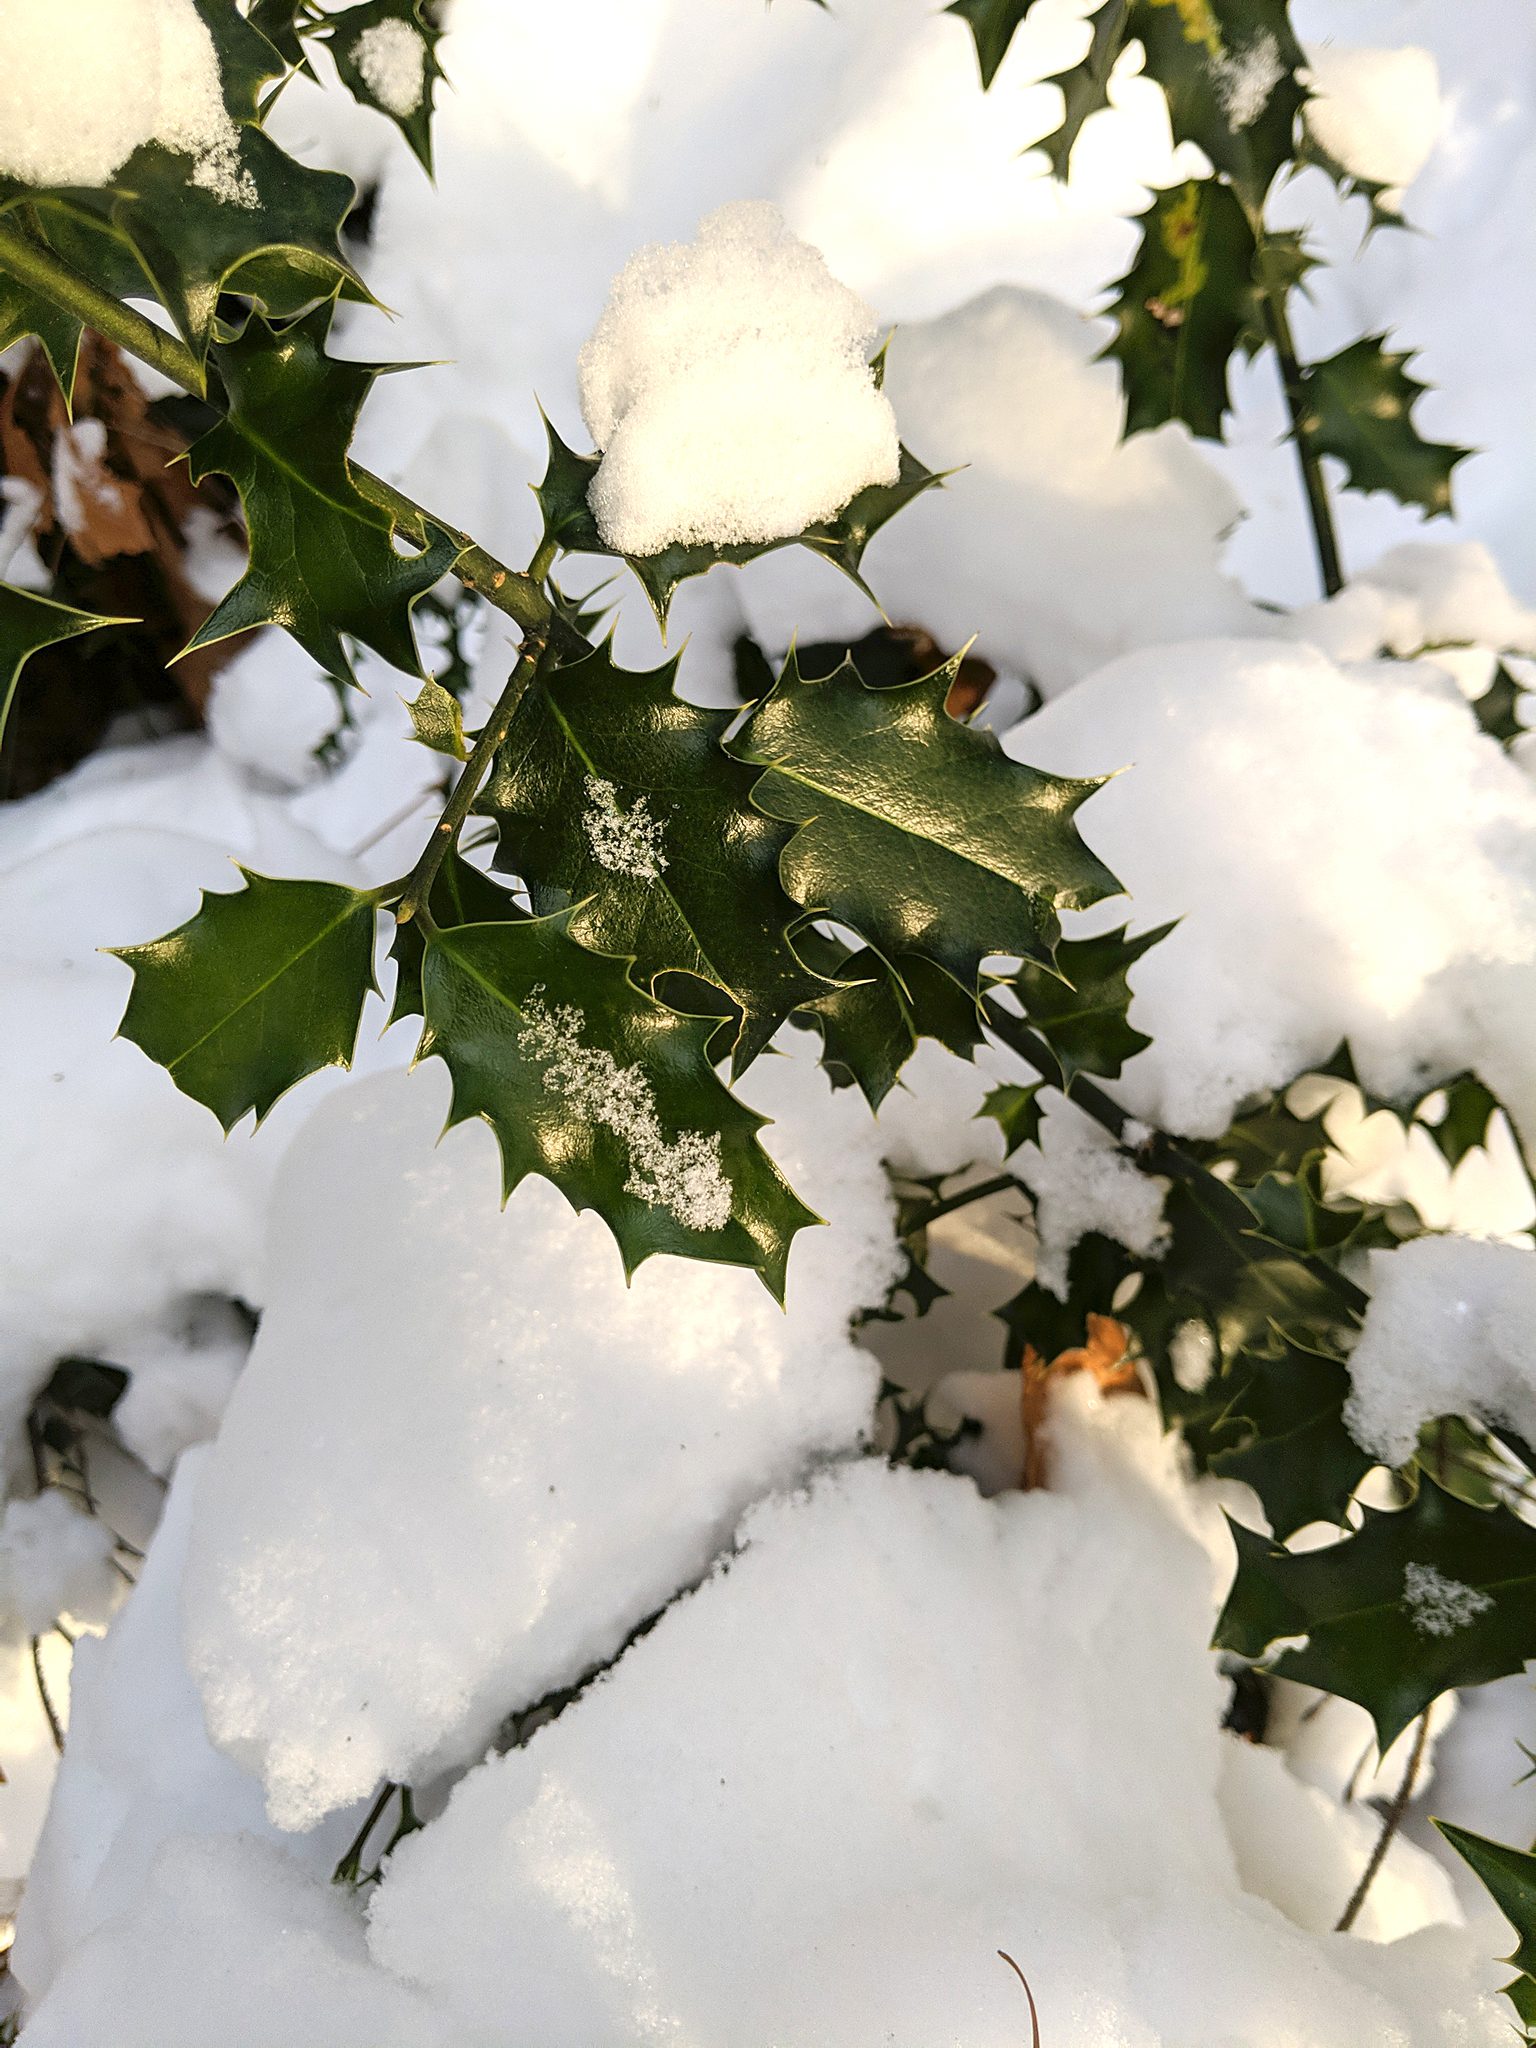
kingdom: Plantae
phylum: Tracheophyta
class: Magnoliopsida
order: Aquifoliales
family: Aquifoliaceae
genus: Ilex
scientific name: Ilex aquifolium
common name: English holly
